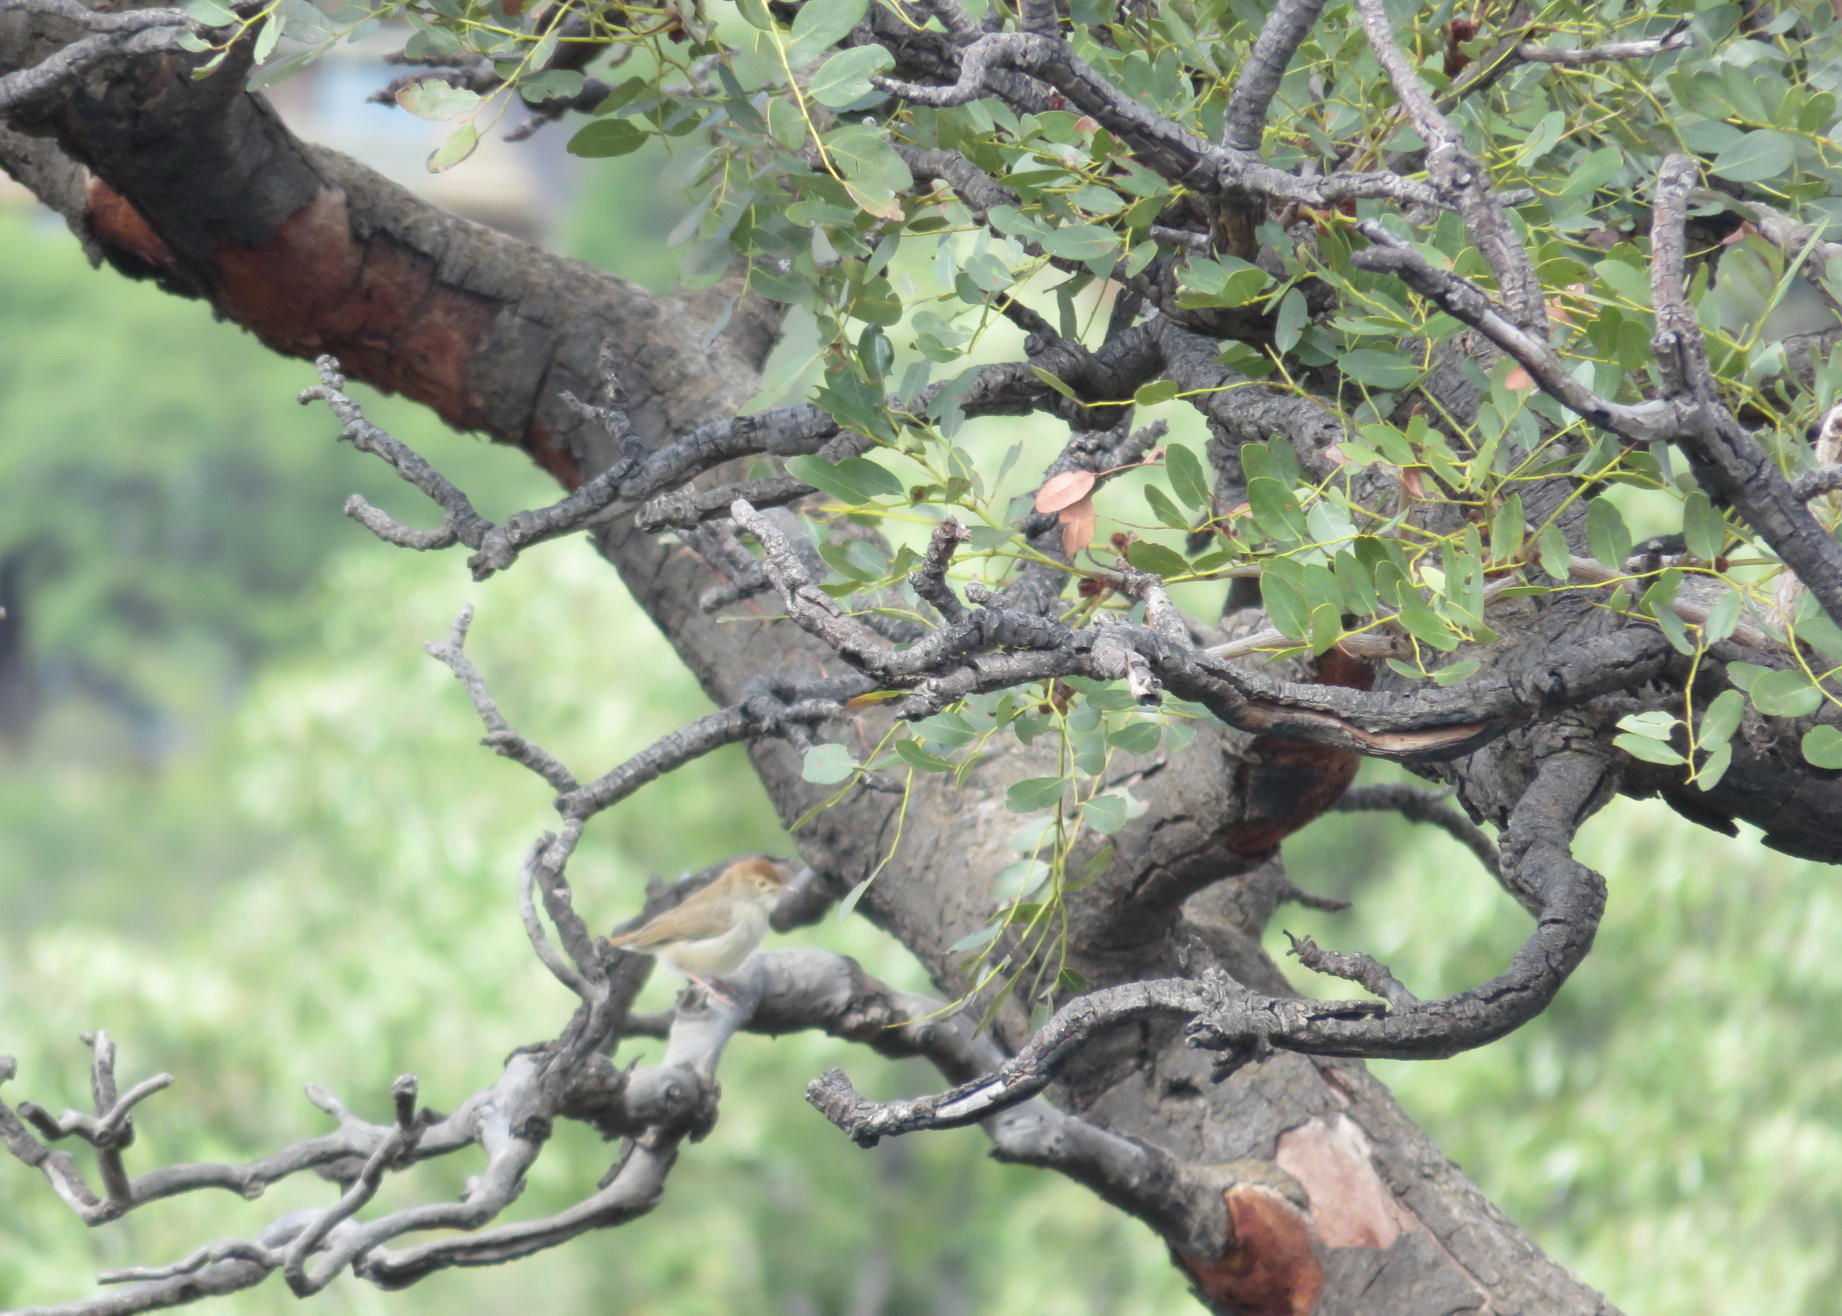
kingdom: Plantae
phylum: Tracheophyta
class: Magnoliopsida
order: Fabales
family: Fabaceae
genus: Burkea
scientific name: Burkea africana
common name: Mkalati tree
